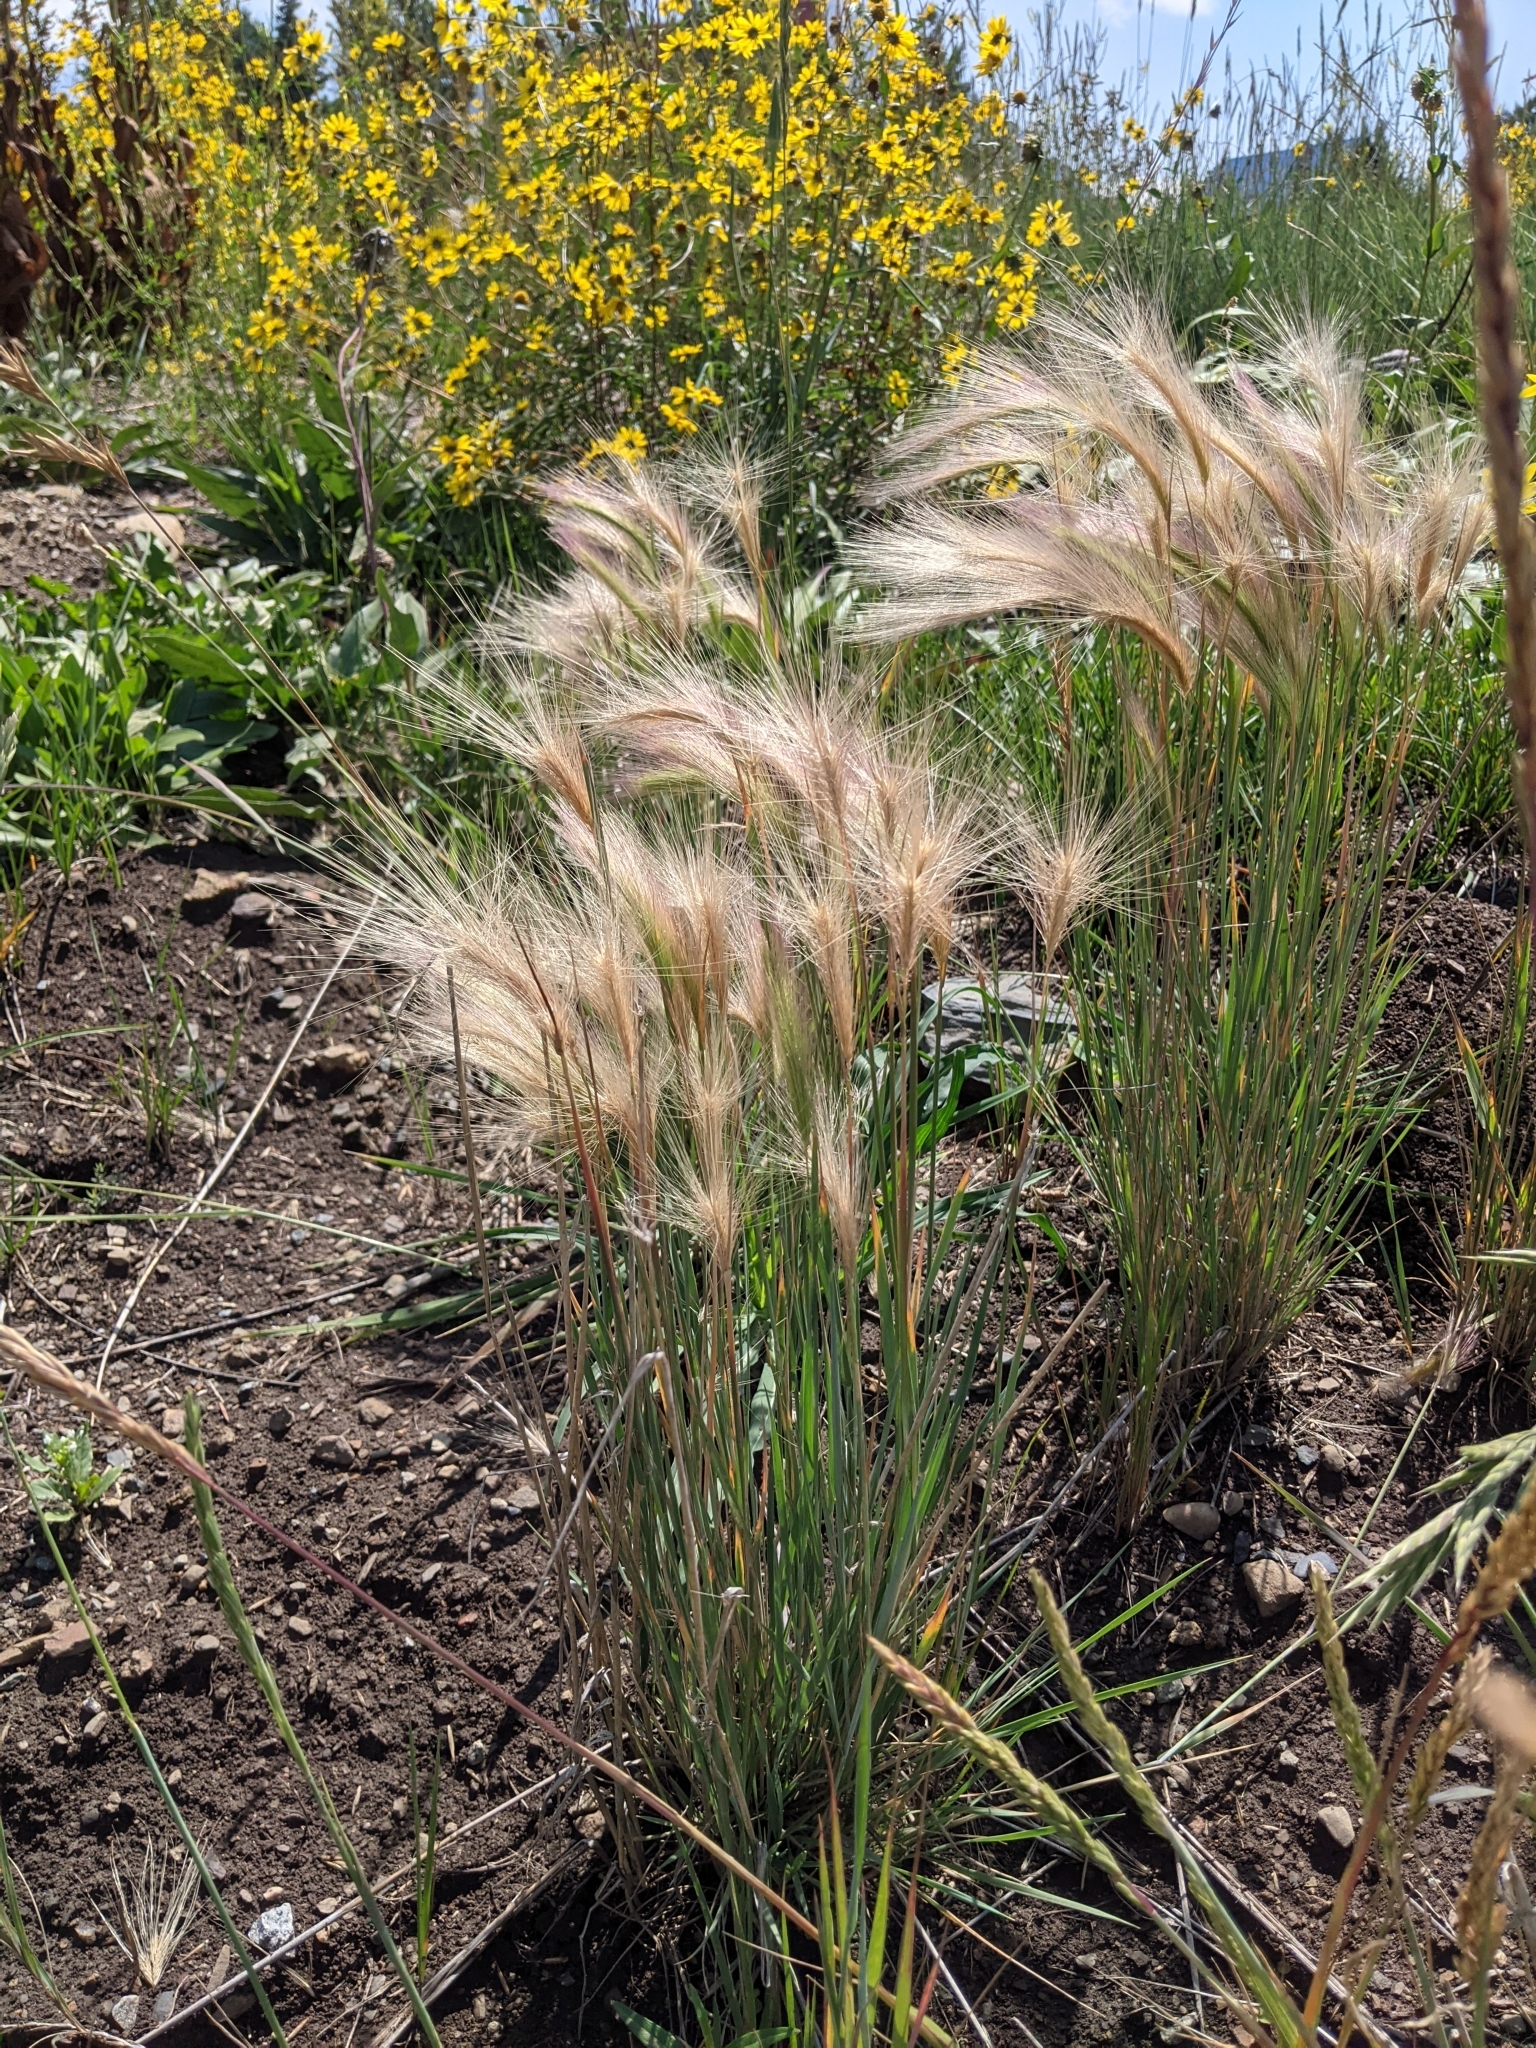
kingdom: Plantae
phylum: Tracheophyta
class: Liliopsida
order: Poales
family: Poaceae
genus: Hordeum
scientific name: Hordeum jubatum
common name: Foxtail barley
